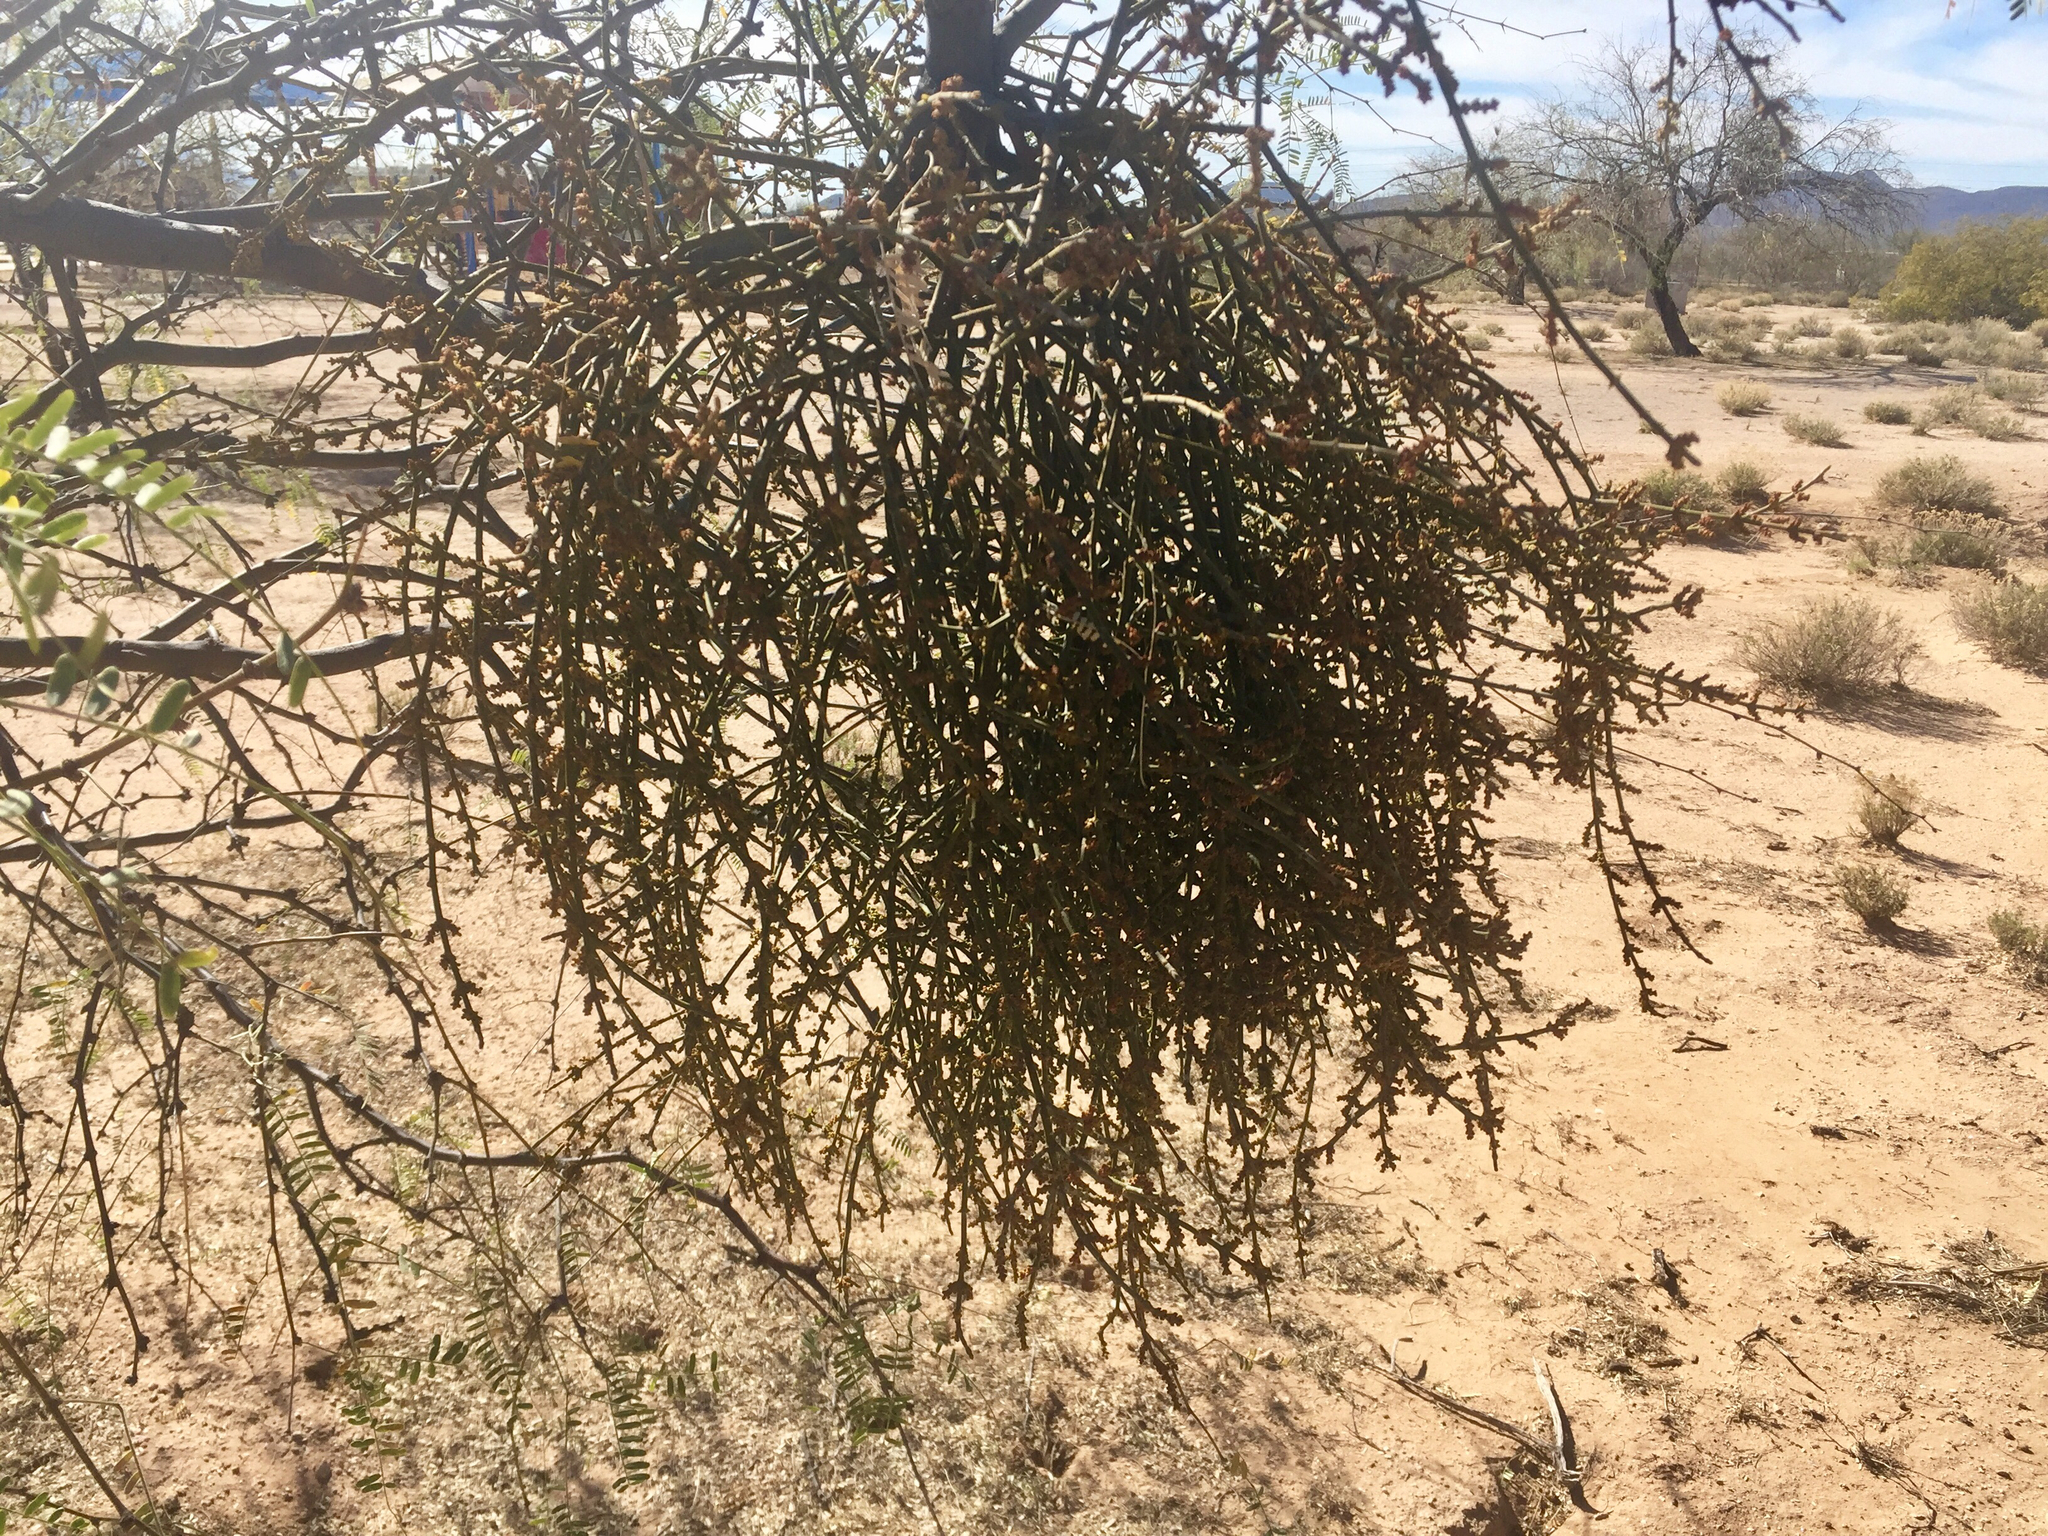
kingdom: Plantae
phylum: Tracheophyta
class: Magnoliopsida
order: Santalales
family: Viscaceae
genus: Phoradendron
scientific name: Phoradendron californicum
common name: Acacia mistletoe
